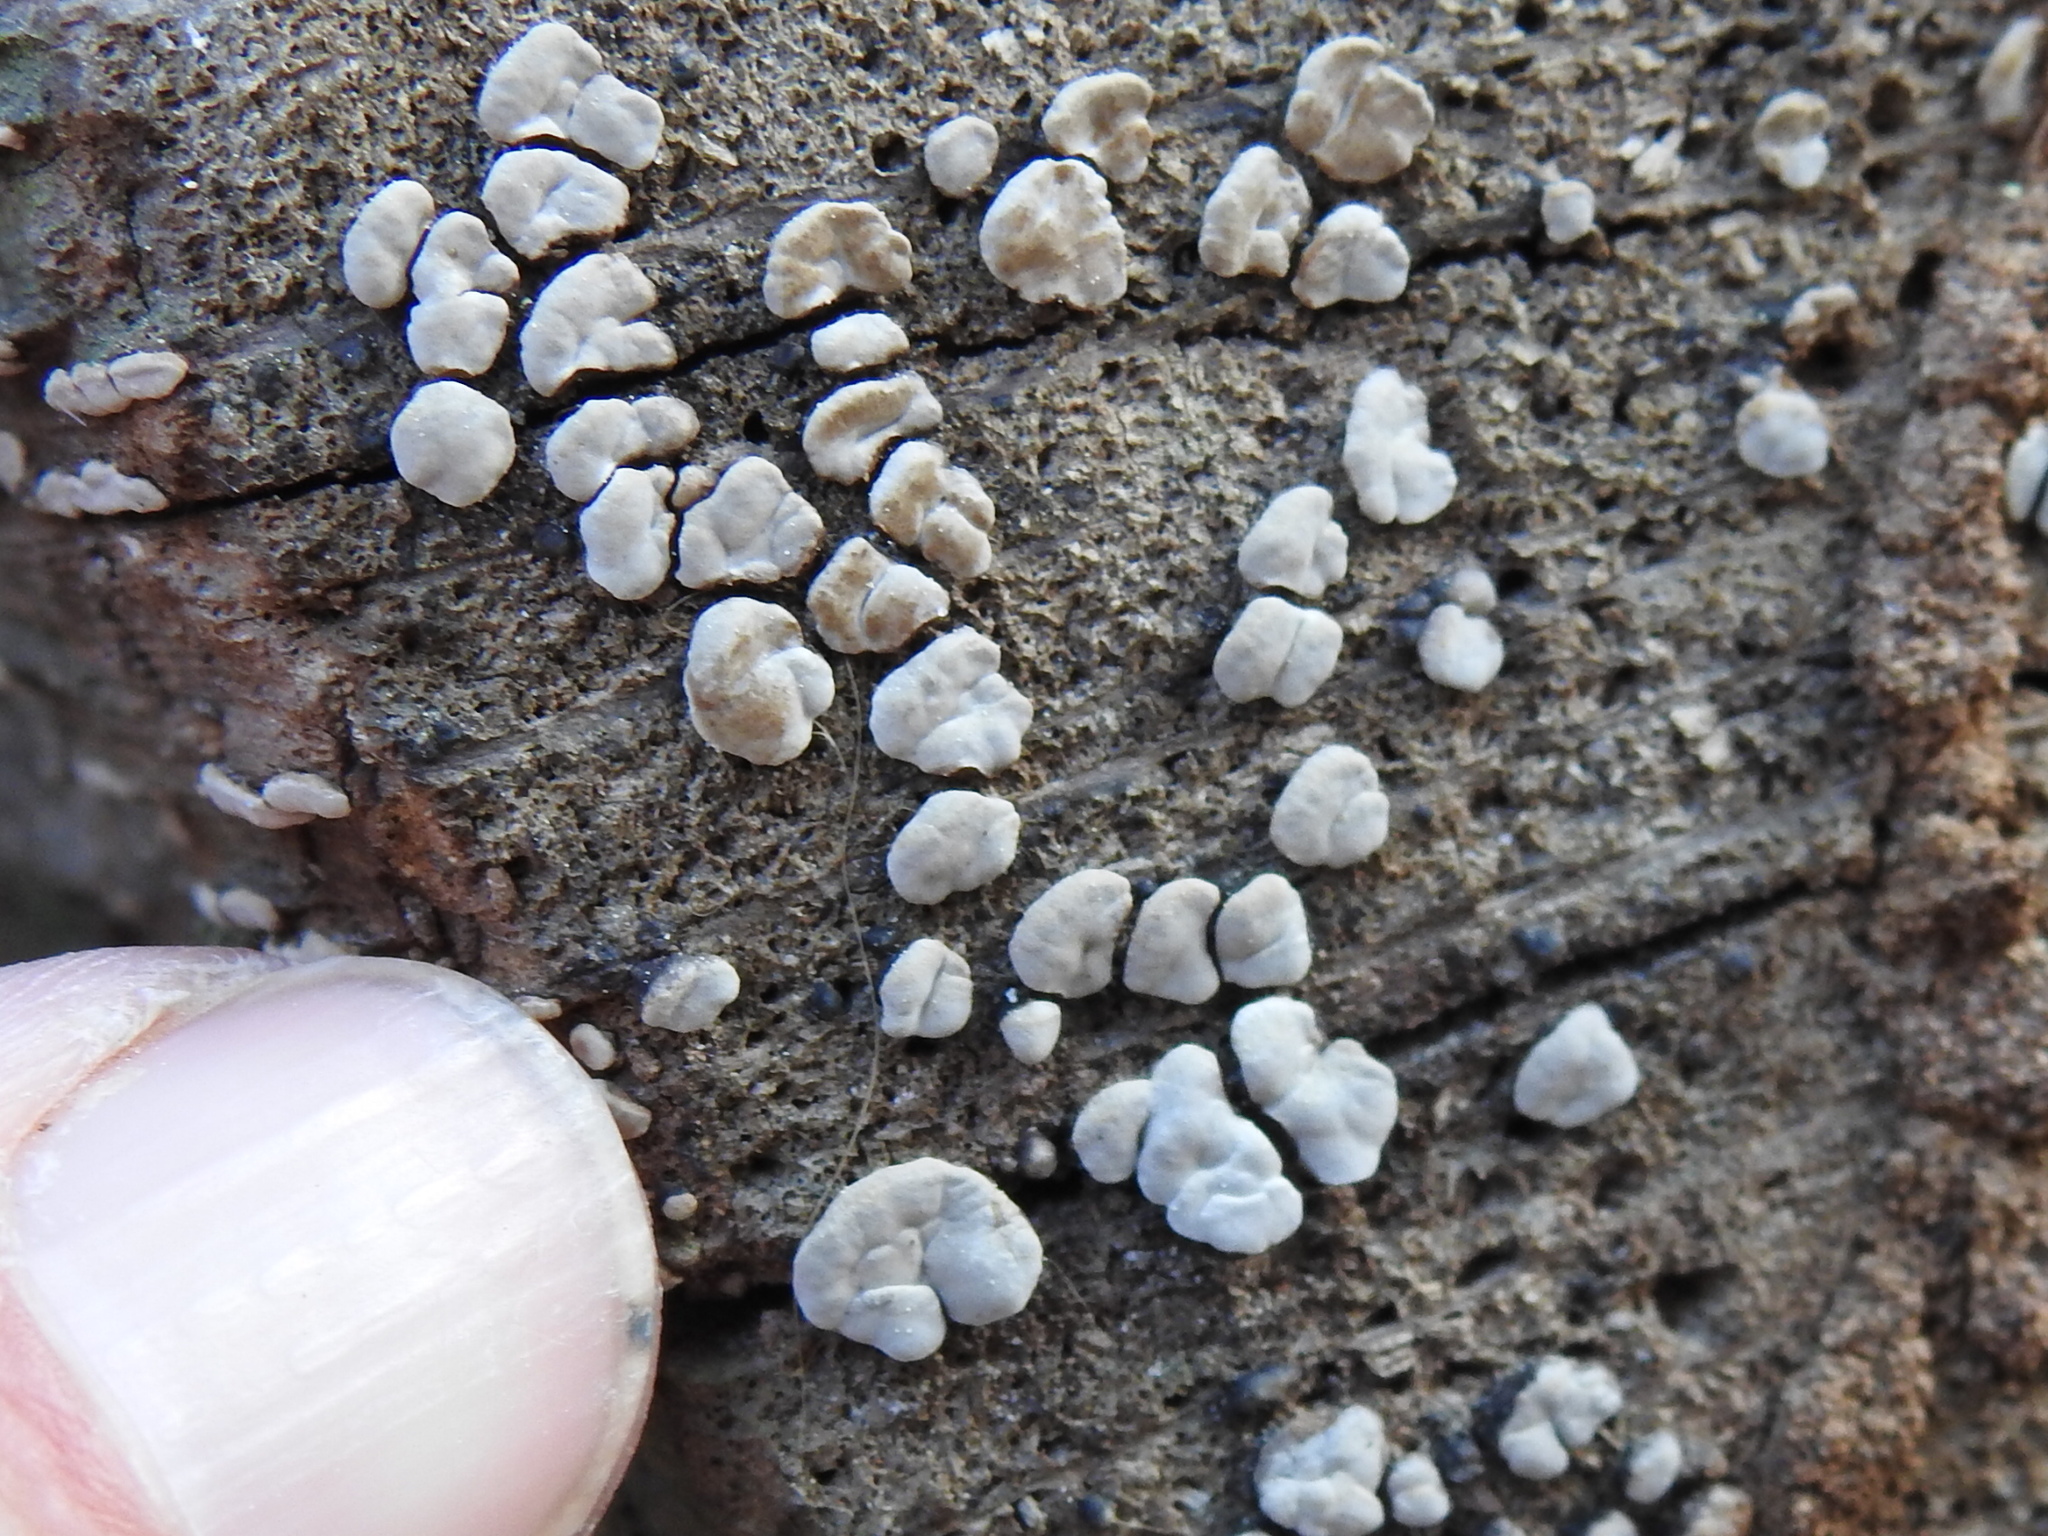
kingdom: Fungi
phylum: Basidiomycota
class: Agaricomycetes
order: Russulales
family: Stereaceae
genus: Xylobolus
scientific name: Xylobolus frustulatus
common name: Ceramic parchment
